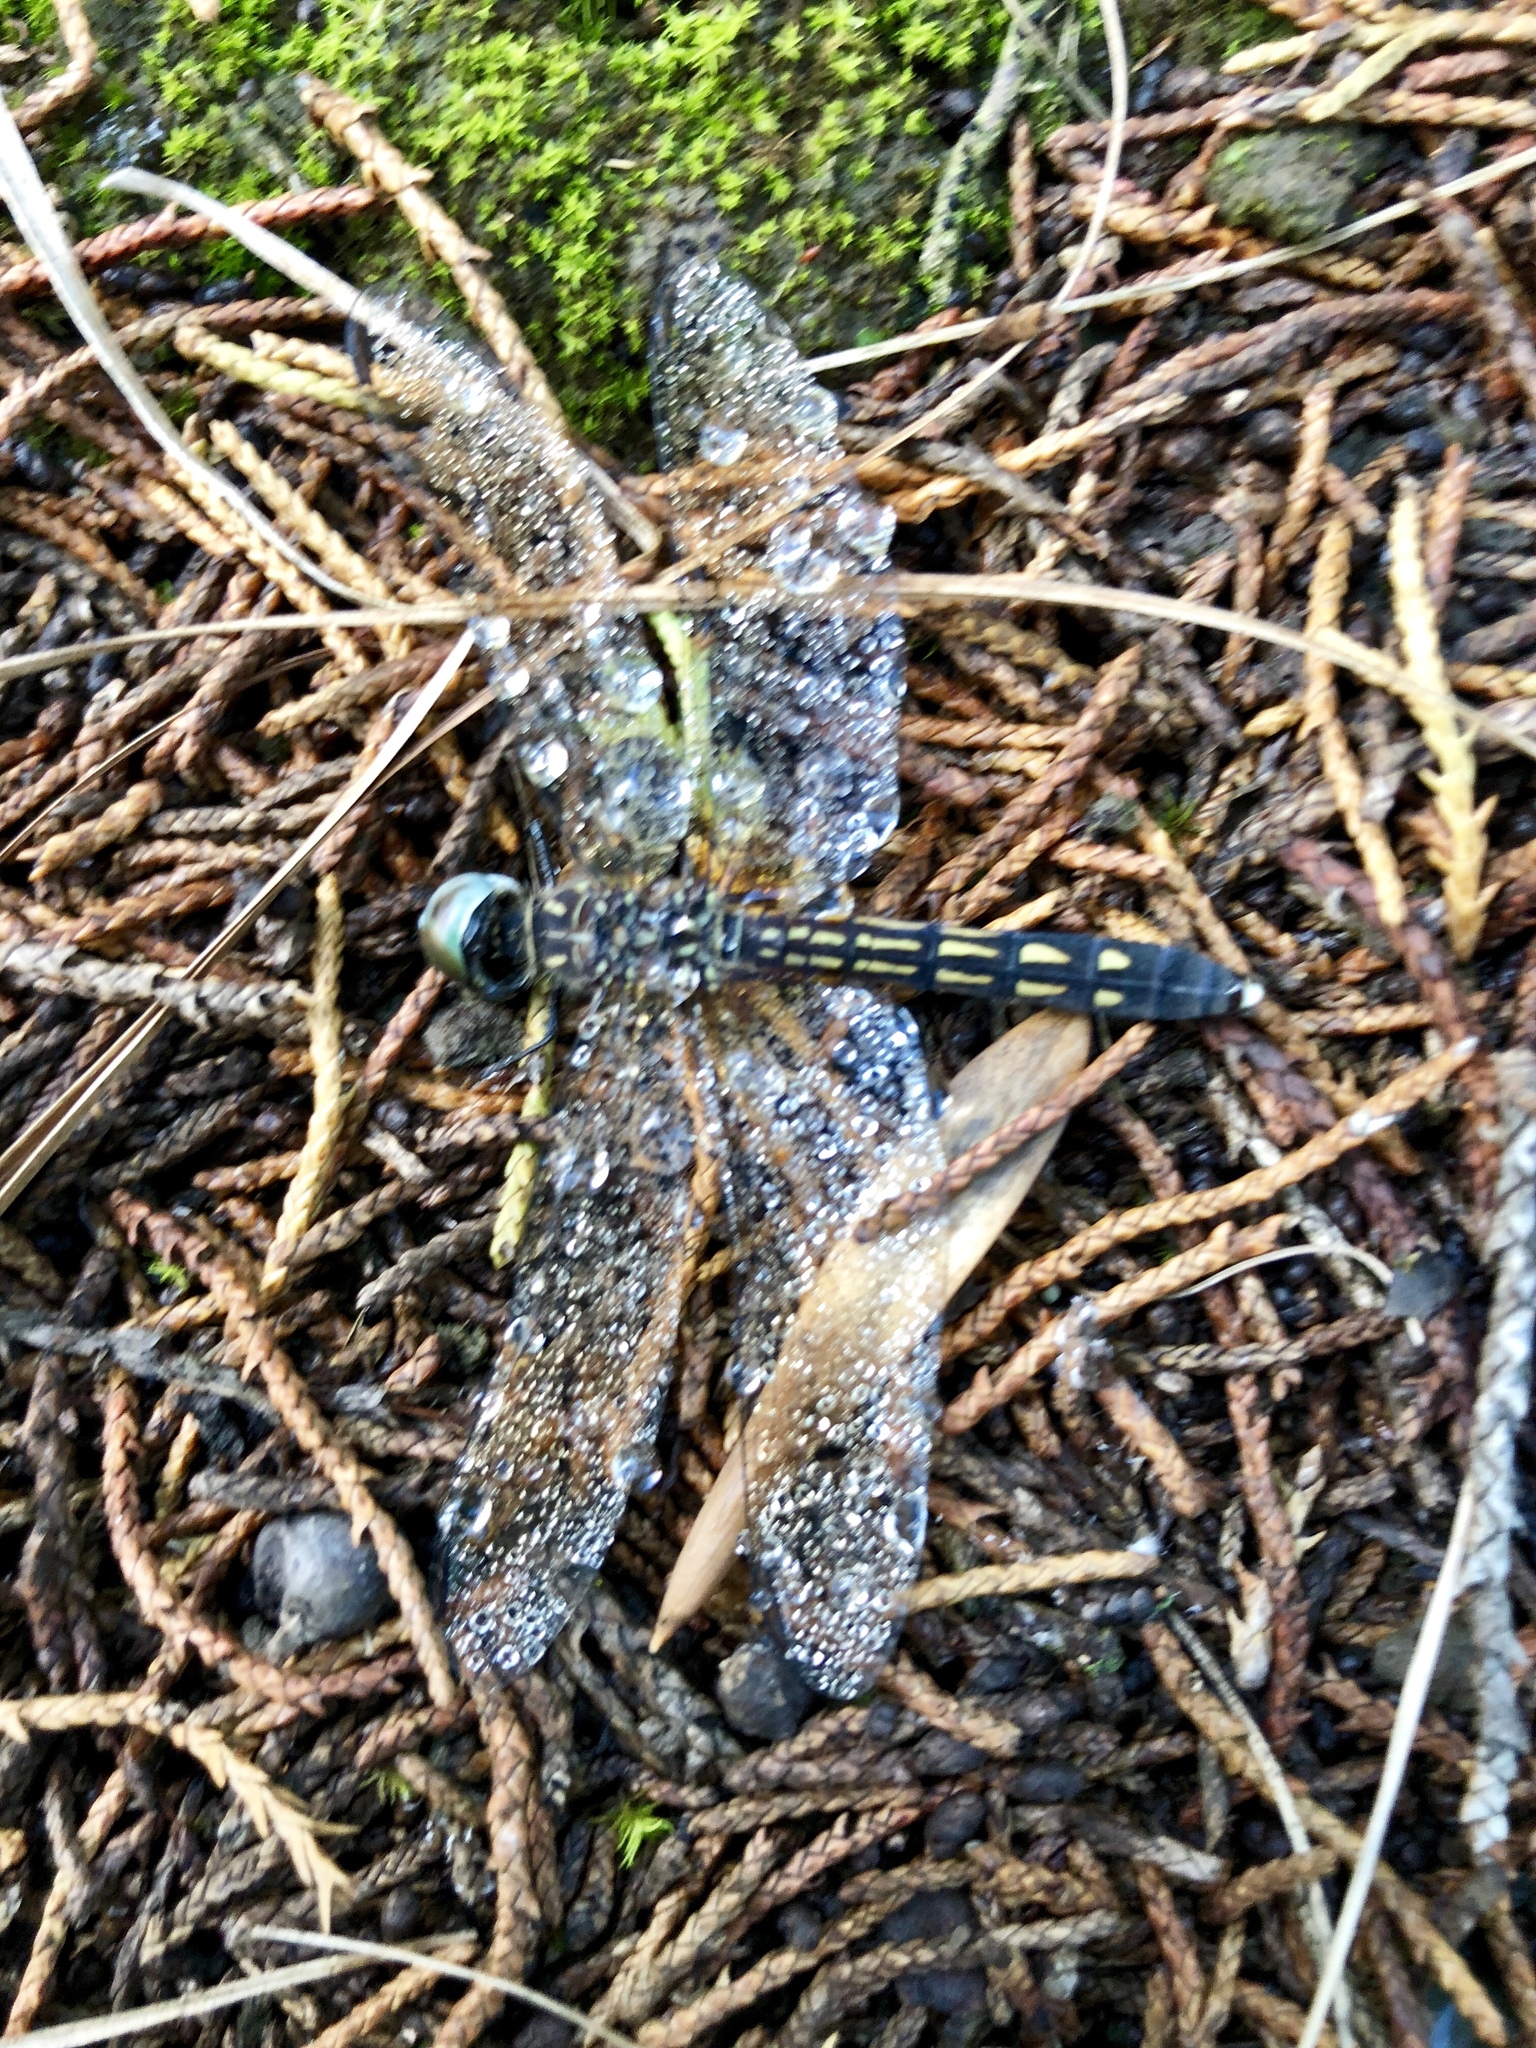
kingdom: Animalia
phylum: Arthropoda
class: Insecta
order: Odonata
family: Libellulidae
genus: Pachydiplax
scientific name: Pachydiplax longipennis
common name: Blue dasher
